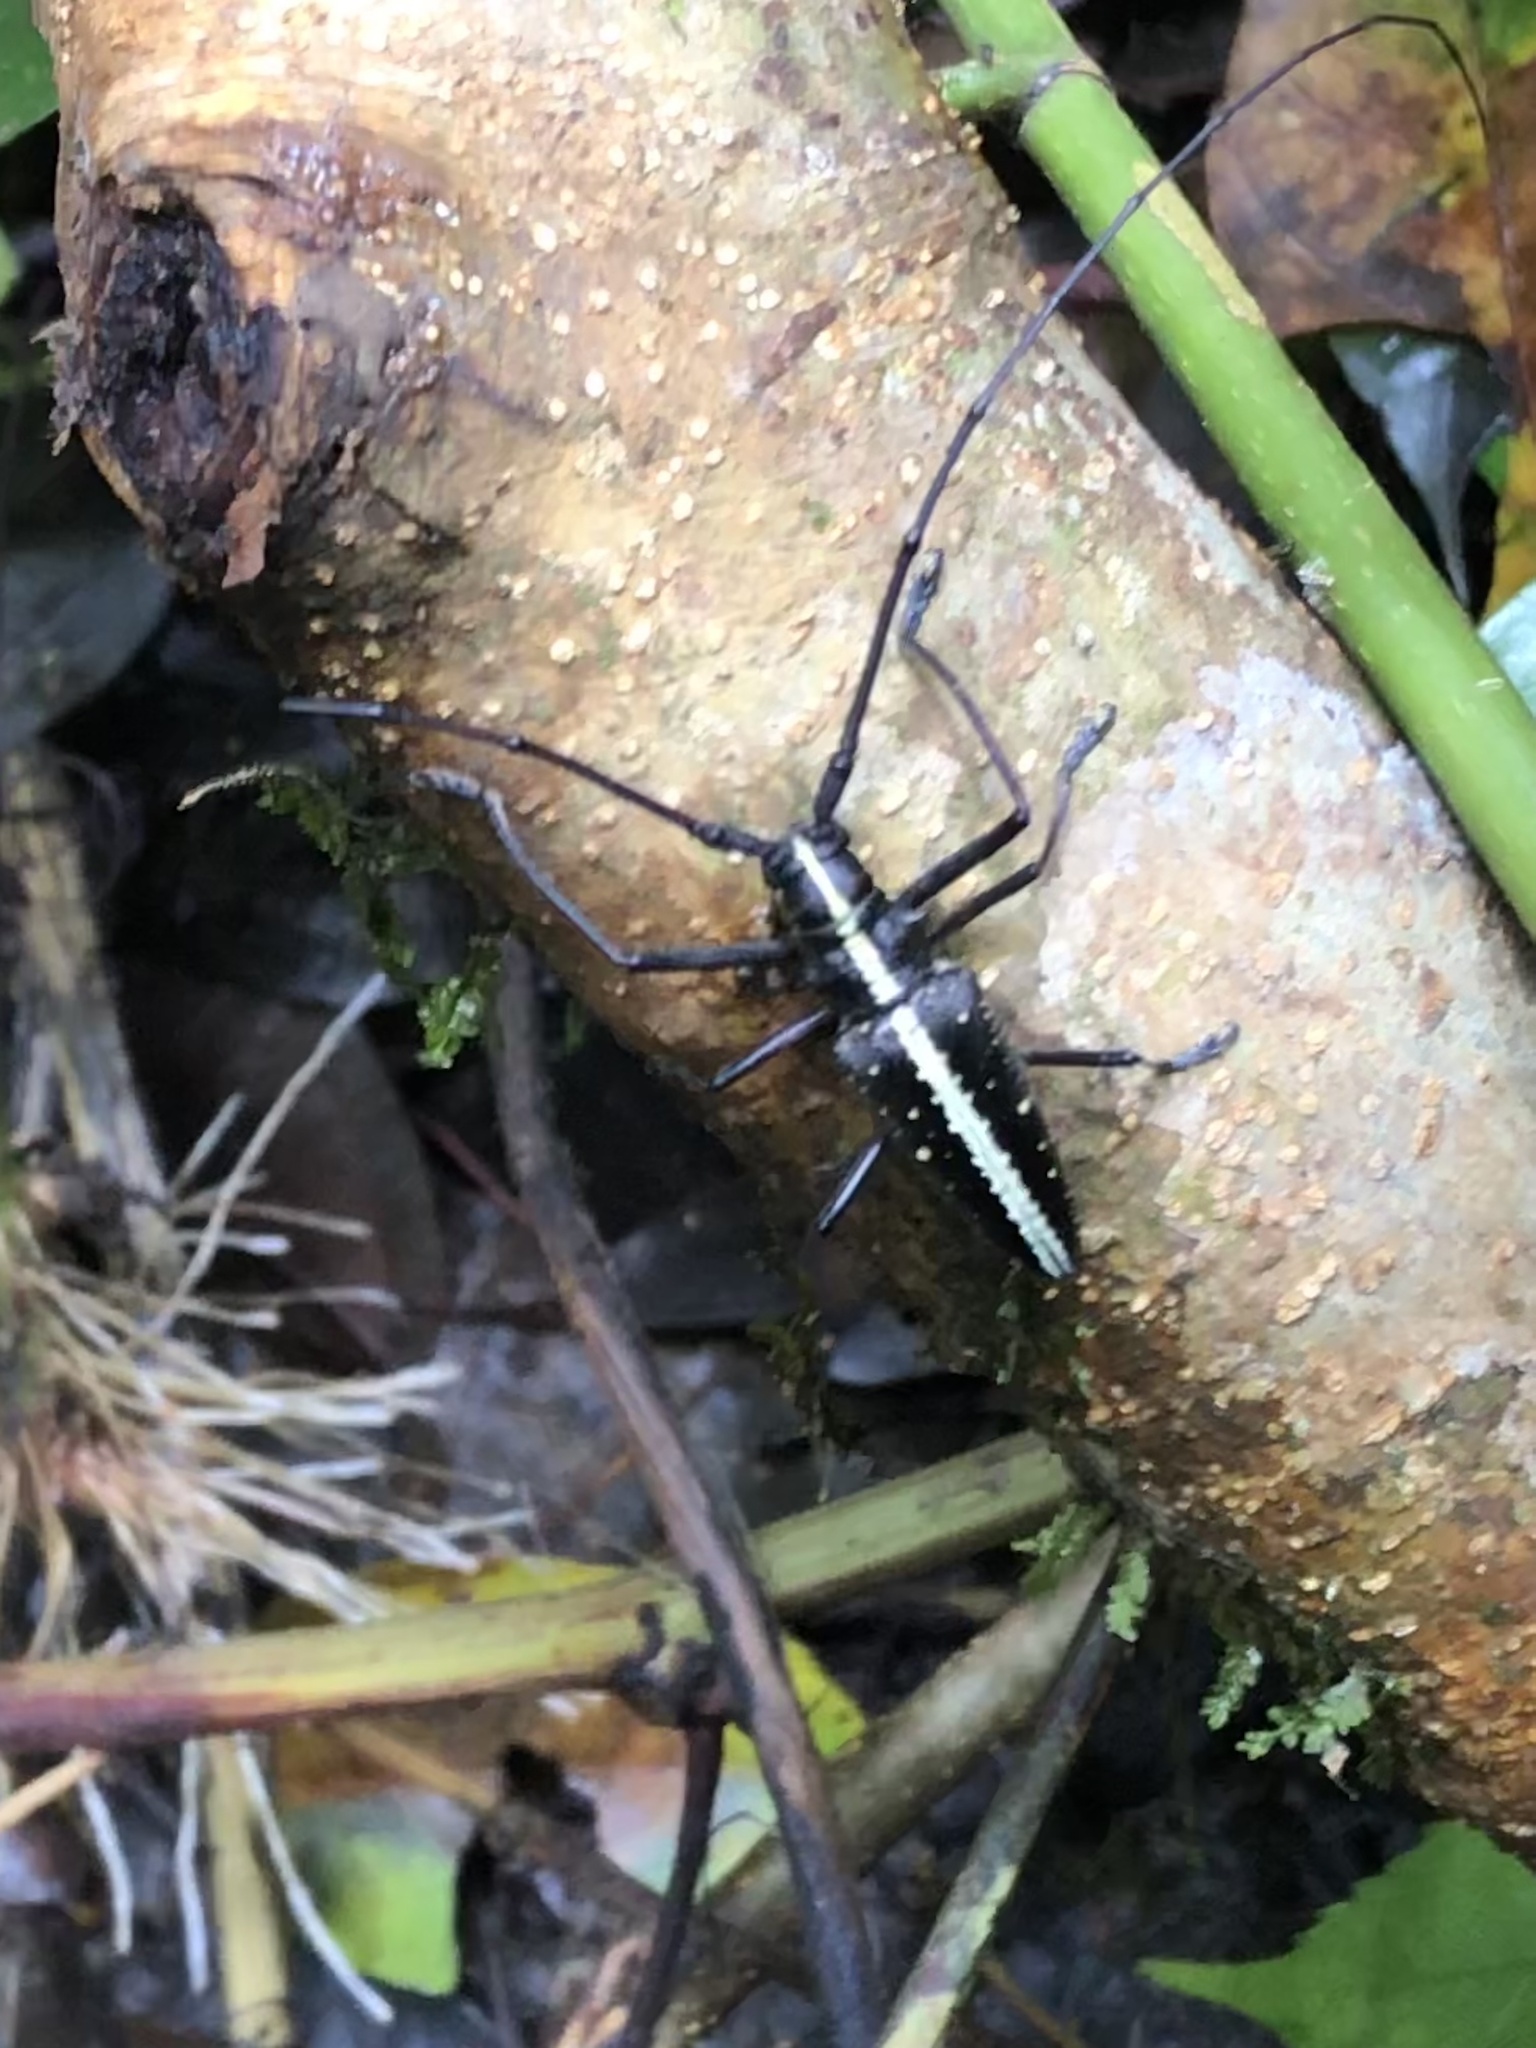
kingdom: Animalia
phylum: Arthropoda
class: Insecta
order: Coleoptera
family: Cerambycidae
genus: Taeniotes
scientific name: Taeniotes relucens
